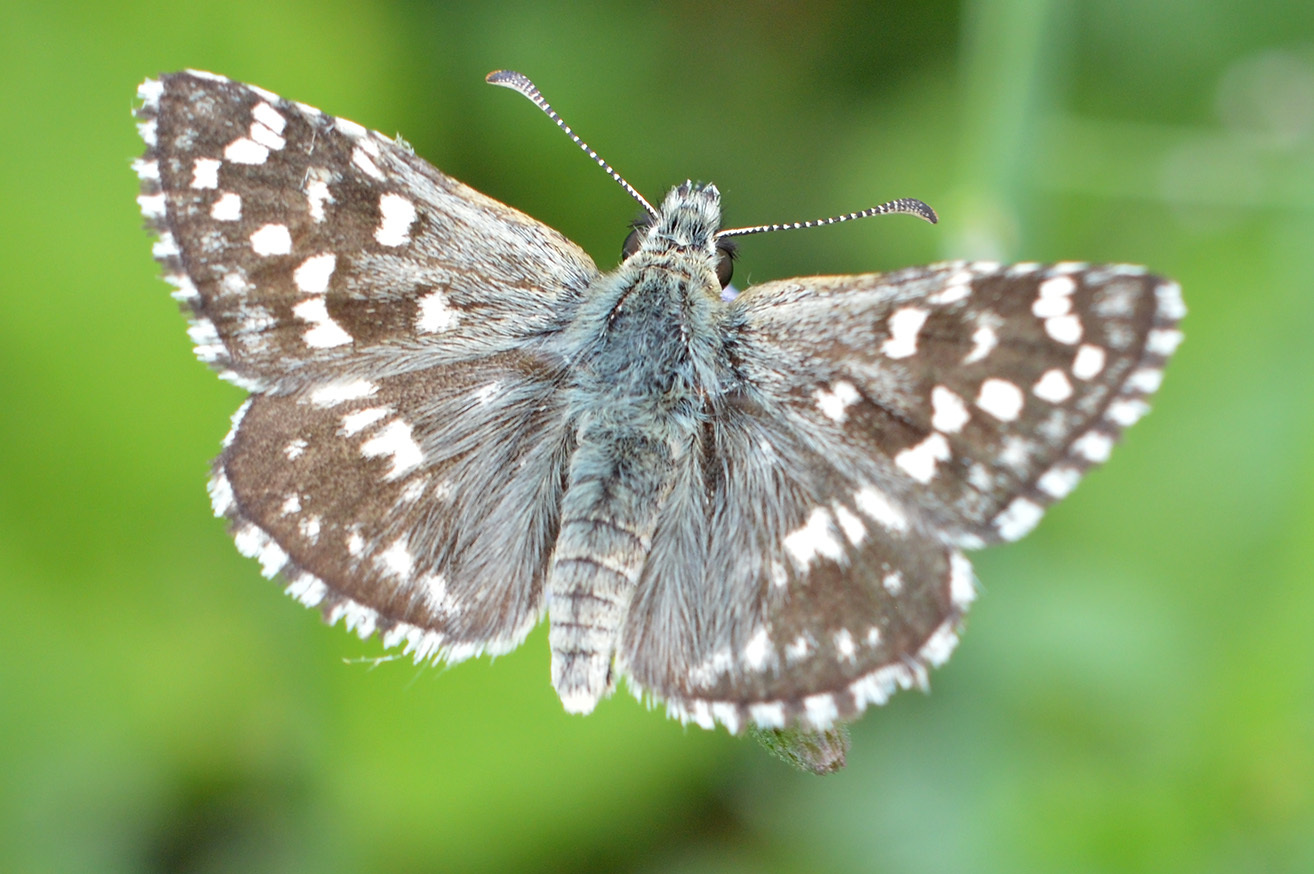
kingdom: Animalia
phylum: Arthropoda
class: Insecta
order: Lepidoptera
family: Hesperiidae
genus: Pyrgus
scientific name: Pyrgus malvae
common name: Grizzled skipper
